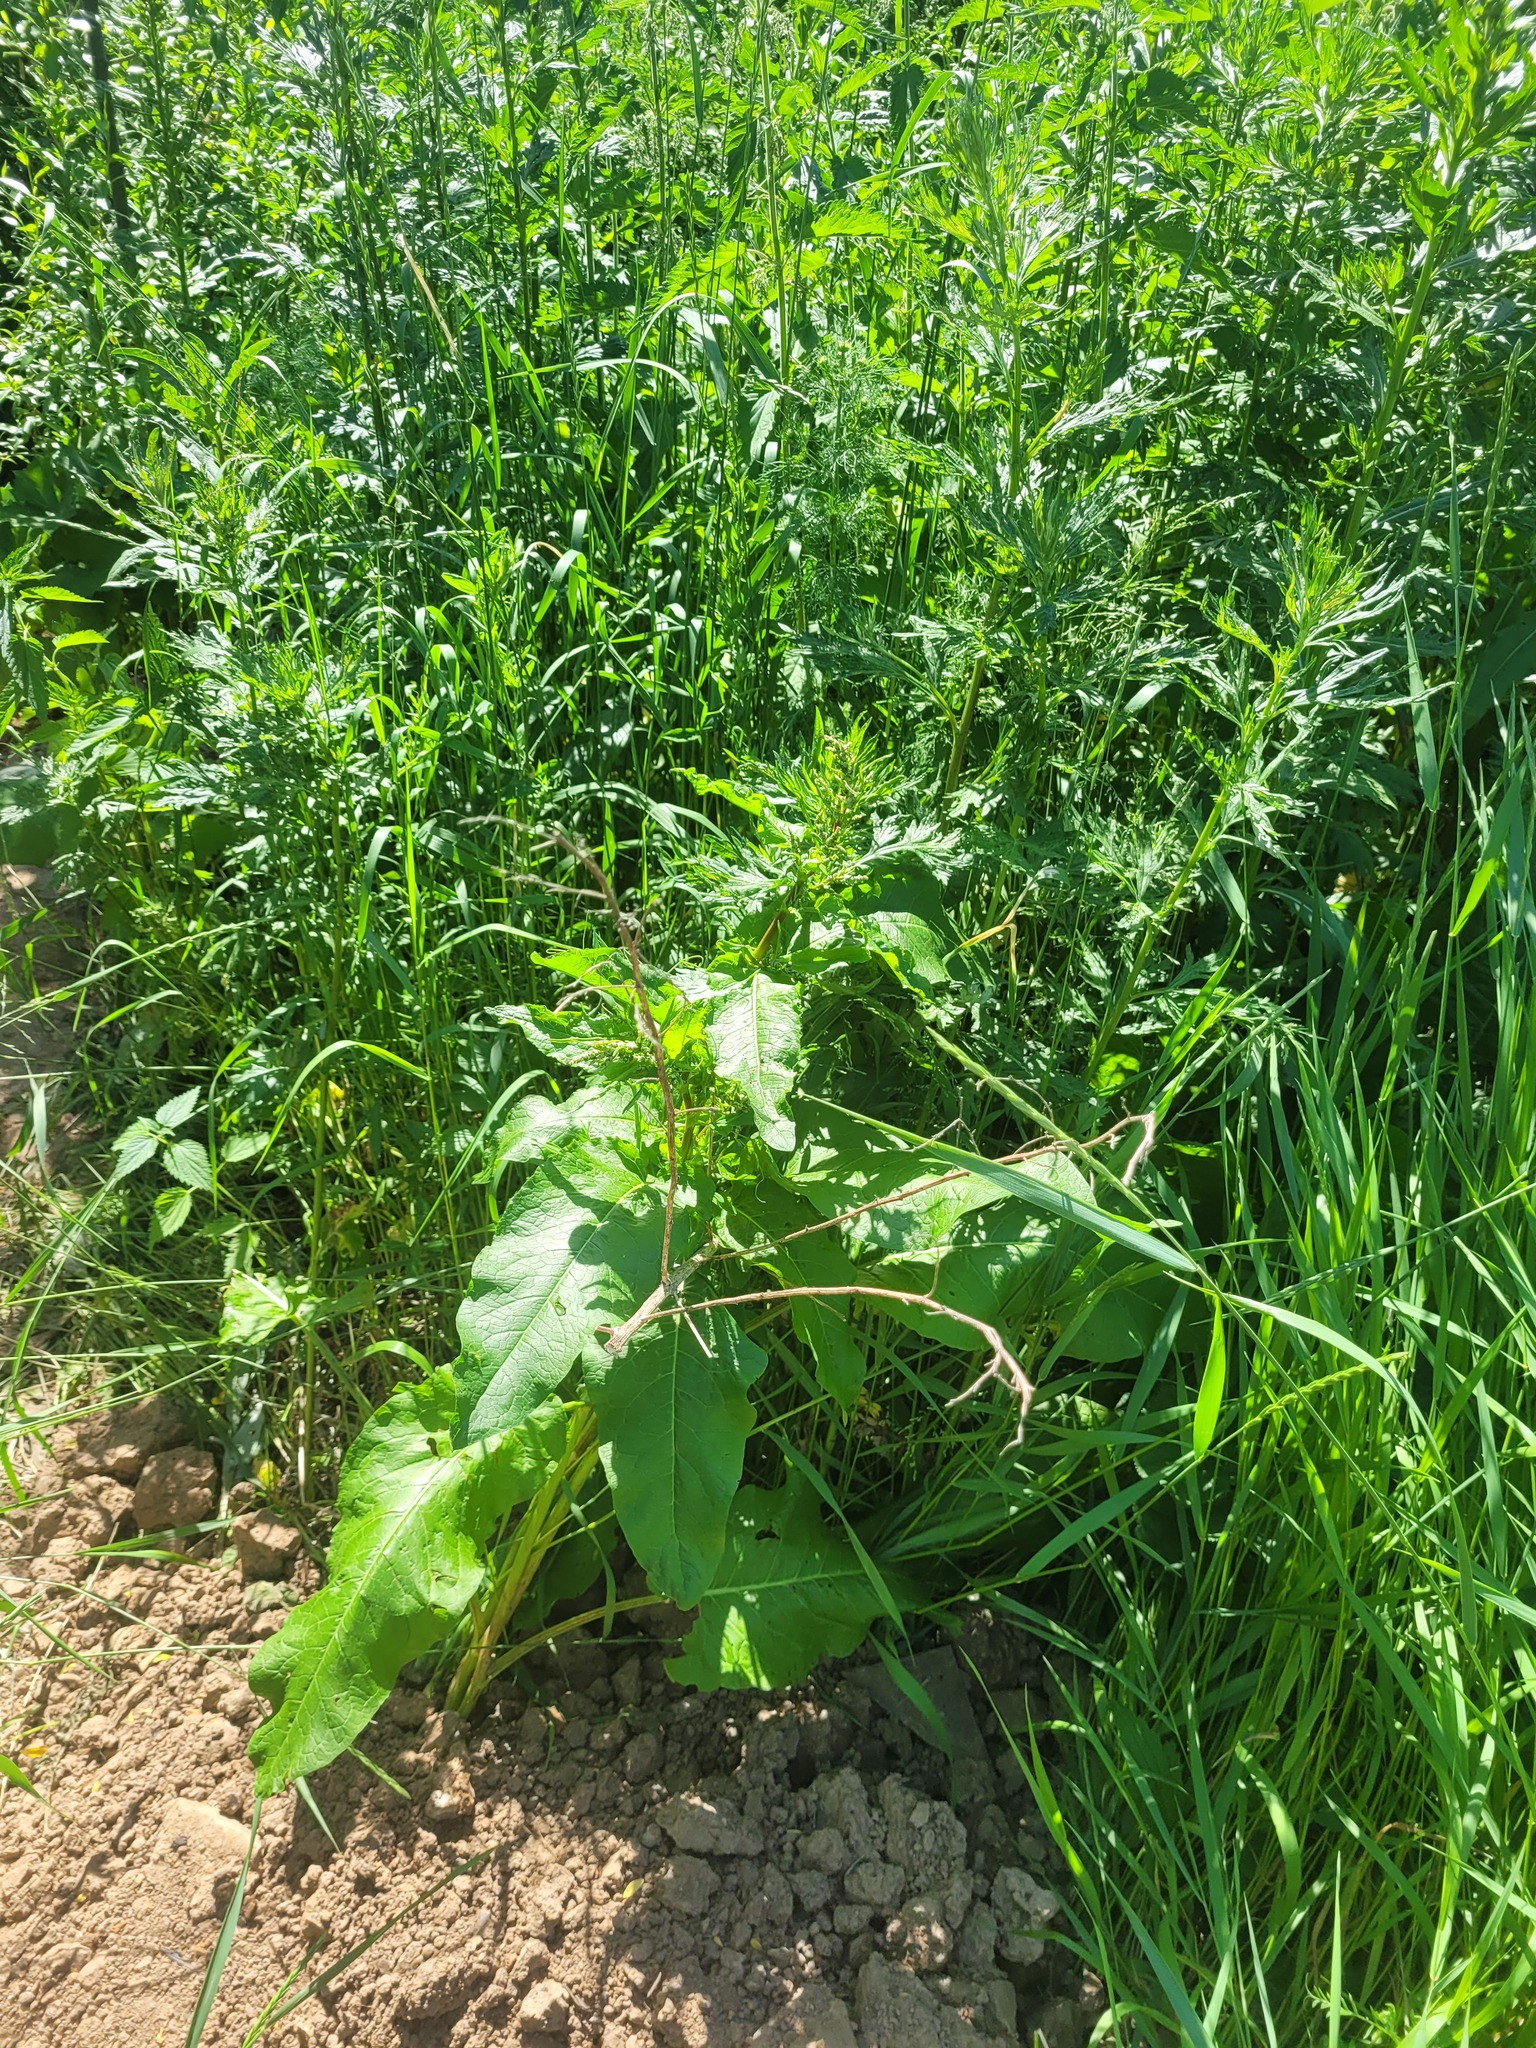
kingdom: Plantae
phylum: Tracheophyta
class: Magnoliopsida
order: Caryophyllales
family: Polygonaceae
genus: Rumex
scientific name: Rumex obtusifolius
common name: Bitter dock
